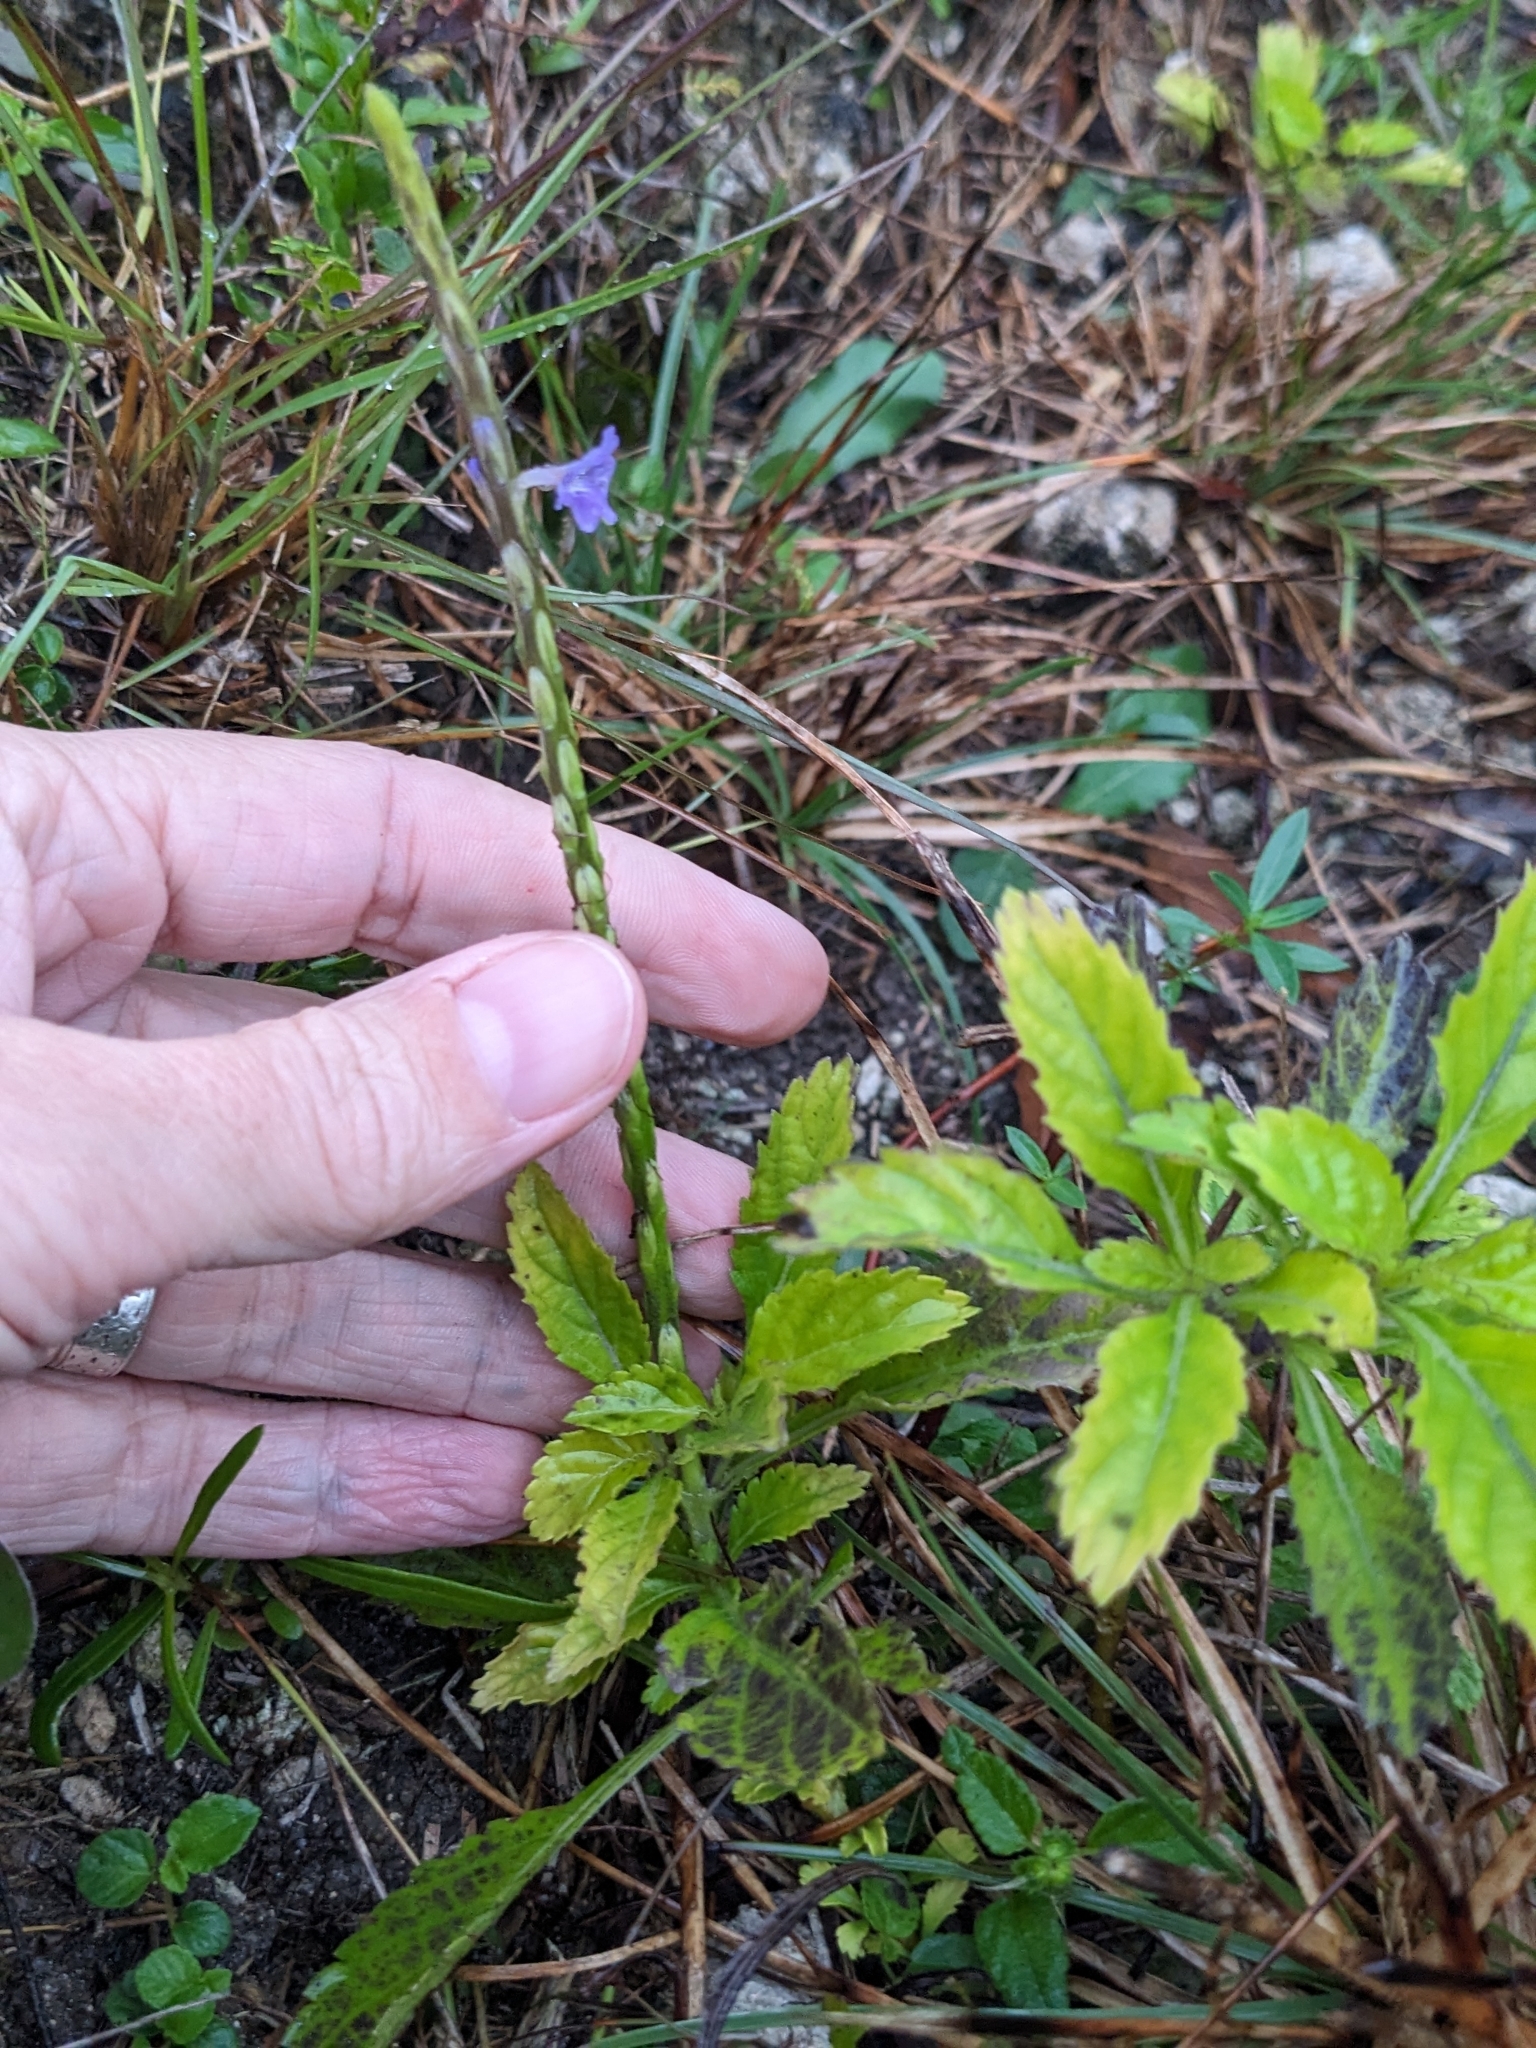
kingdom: Plantae
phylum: Tracheophyta
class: Magnoliopsida
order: Lamiales
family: Verbenaceae
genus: Stachytarpheta
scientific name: Stachytarpheta jamaicensis
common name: Light-blue snakeweed
